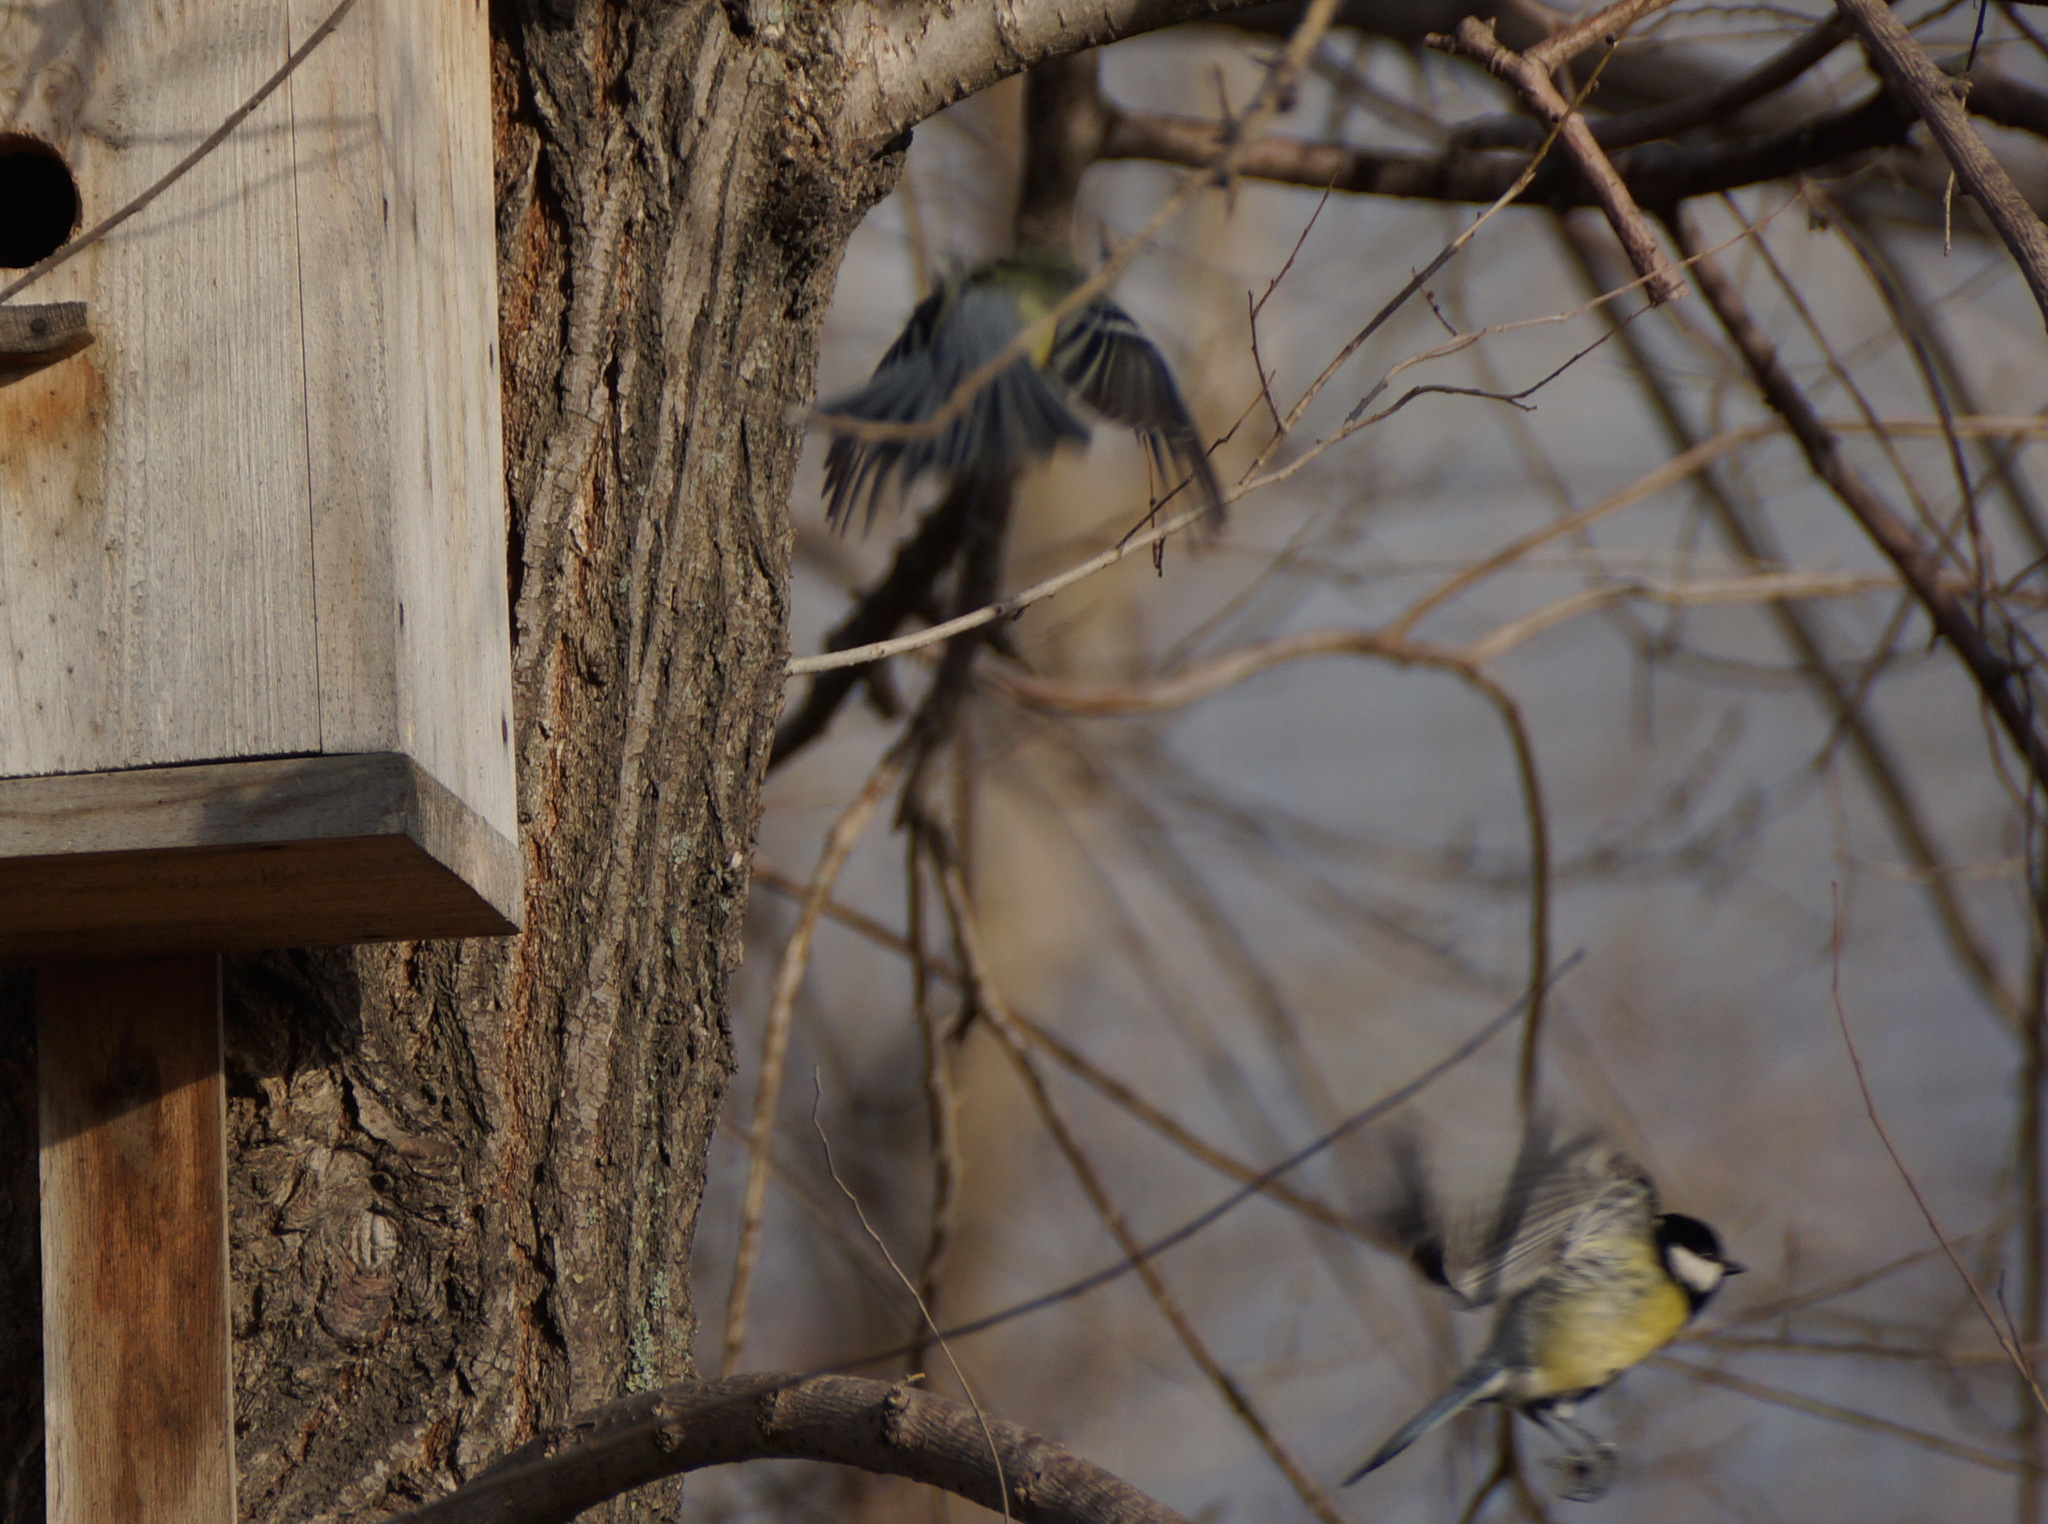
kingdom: Animalia
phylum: Chordata
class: Aves
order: Passeriformes
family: Paridae
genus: Parus
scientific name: Parus major
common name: Great tit
